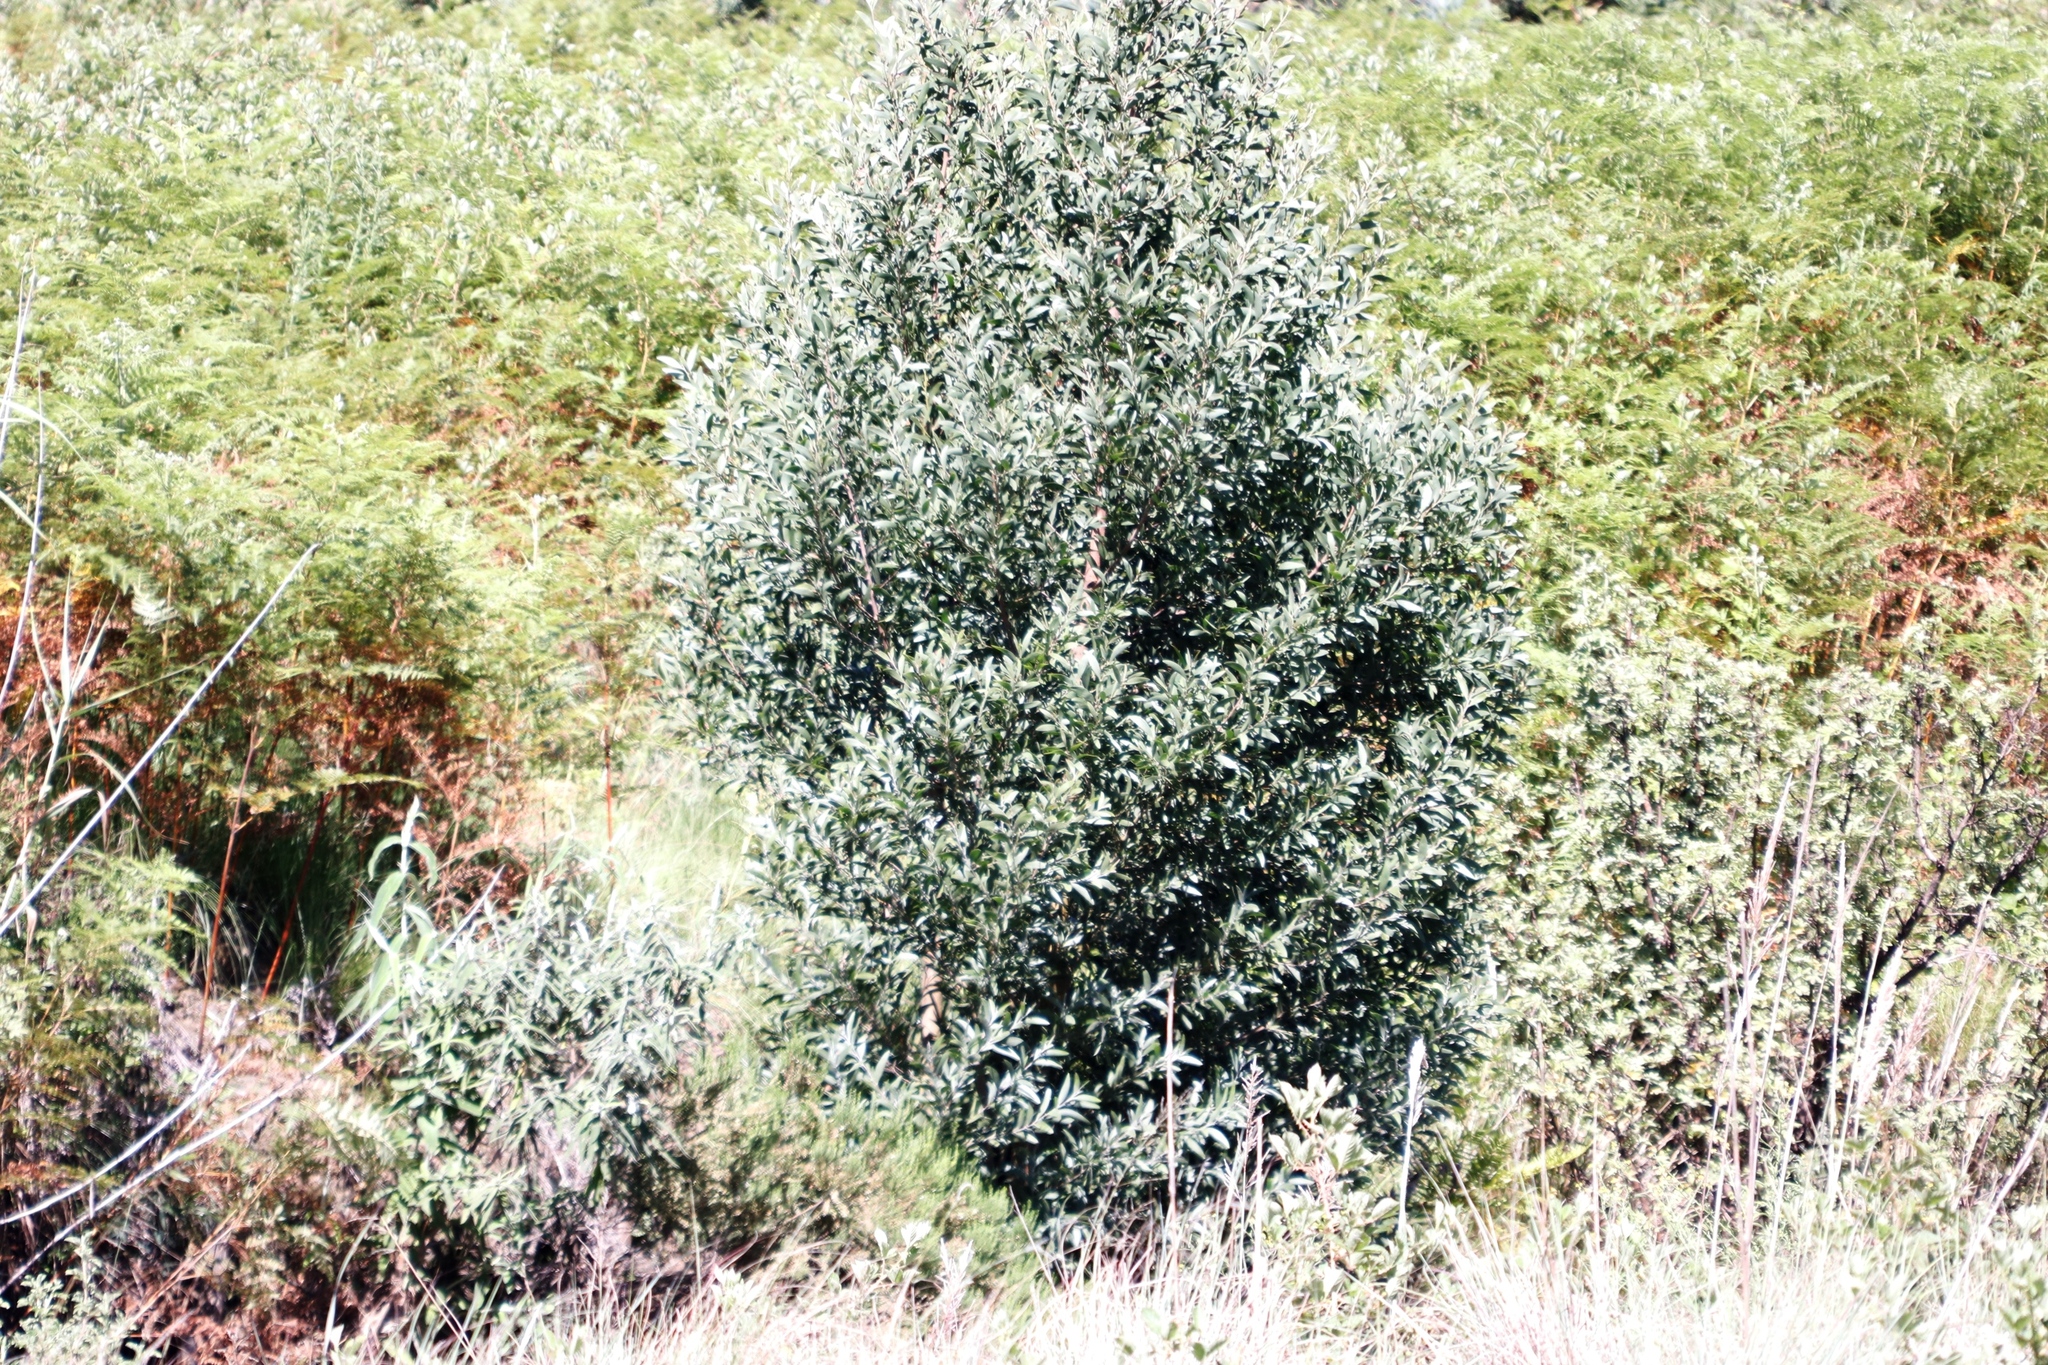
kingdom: Plantae
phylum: Tracheophyta
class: Magnoliopsida
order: Fabales
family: Fabaceae
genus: Acacia
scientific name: Acacia melanoxylon
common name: Blackwood
